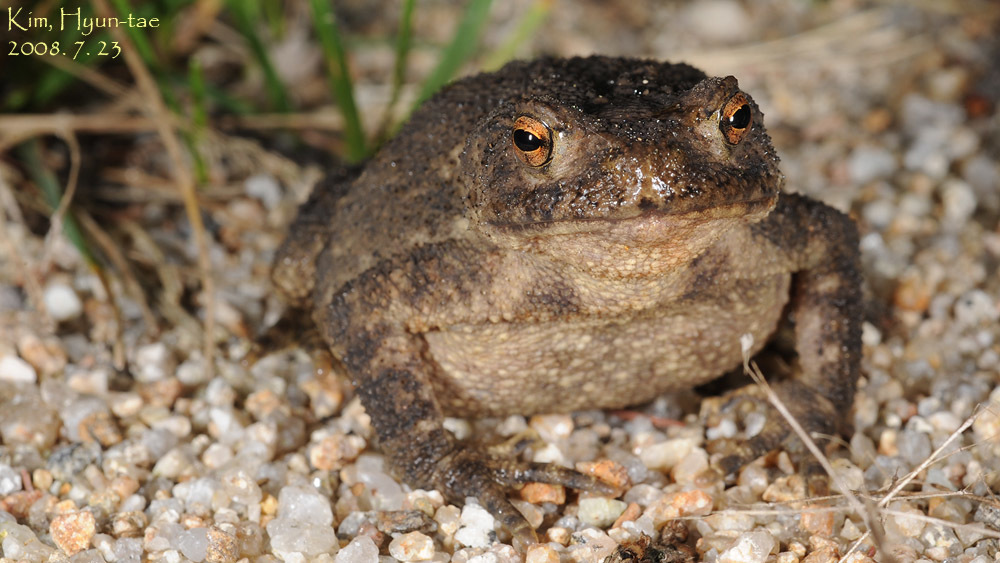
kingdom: Animalia
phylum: Chordata
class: Amphibia
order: Anura
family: Bufonidae
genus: Bufo
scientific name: Bufo stejnegeri
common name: Water toad
